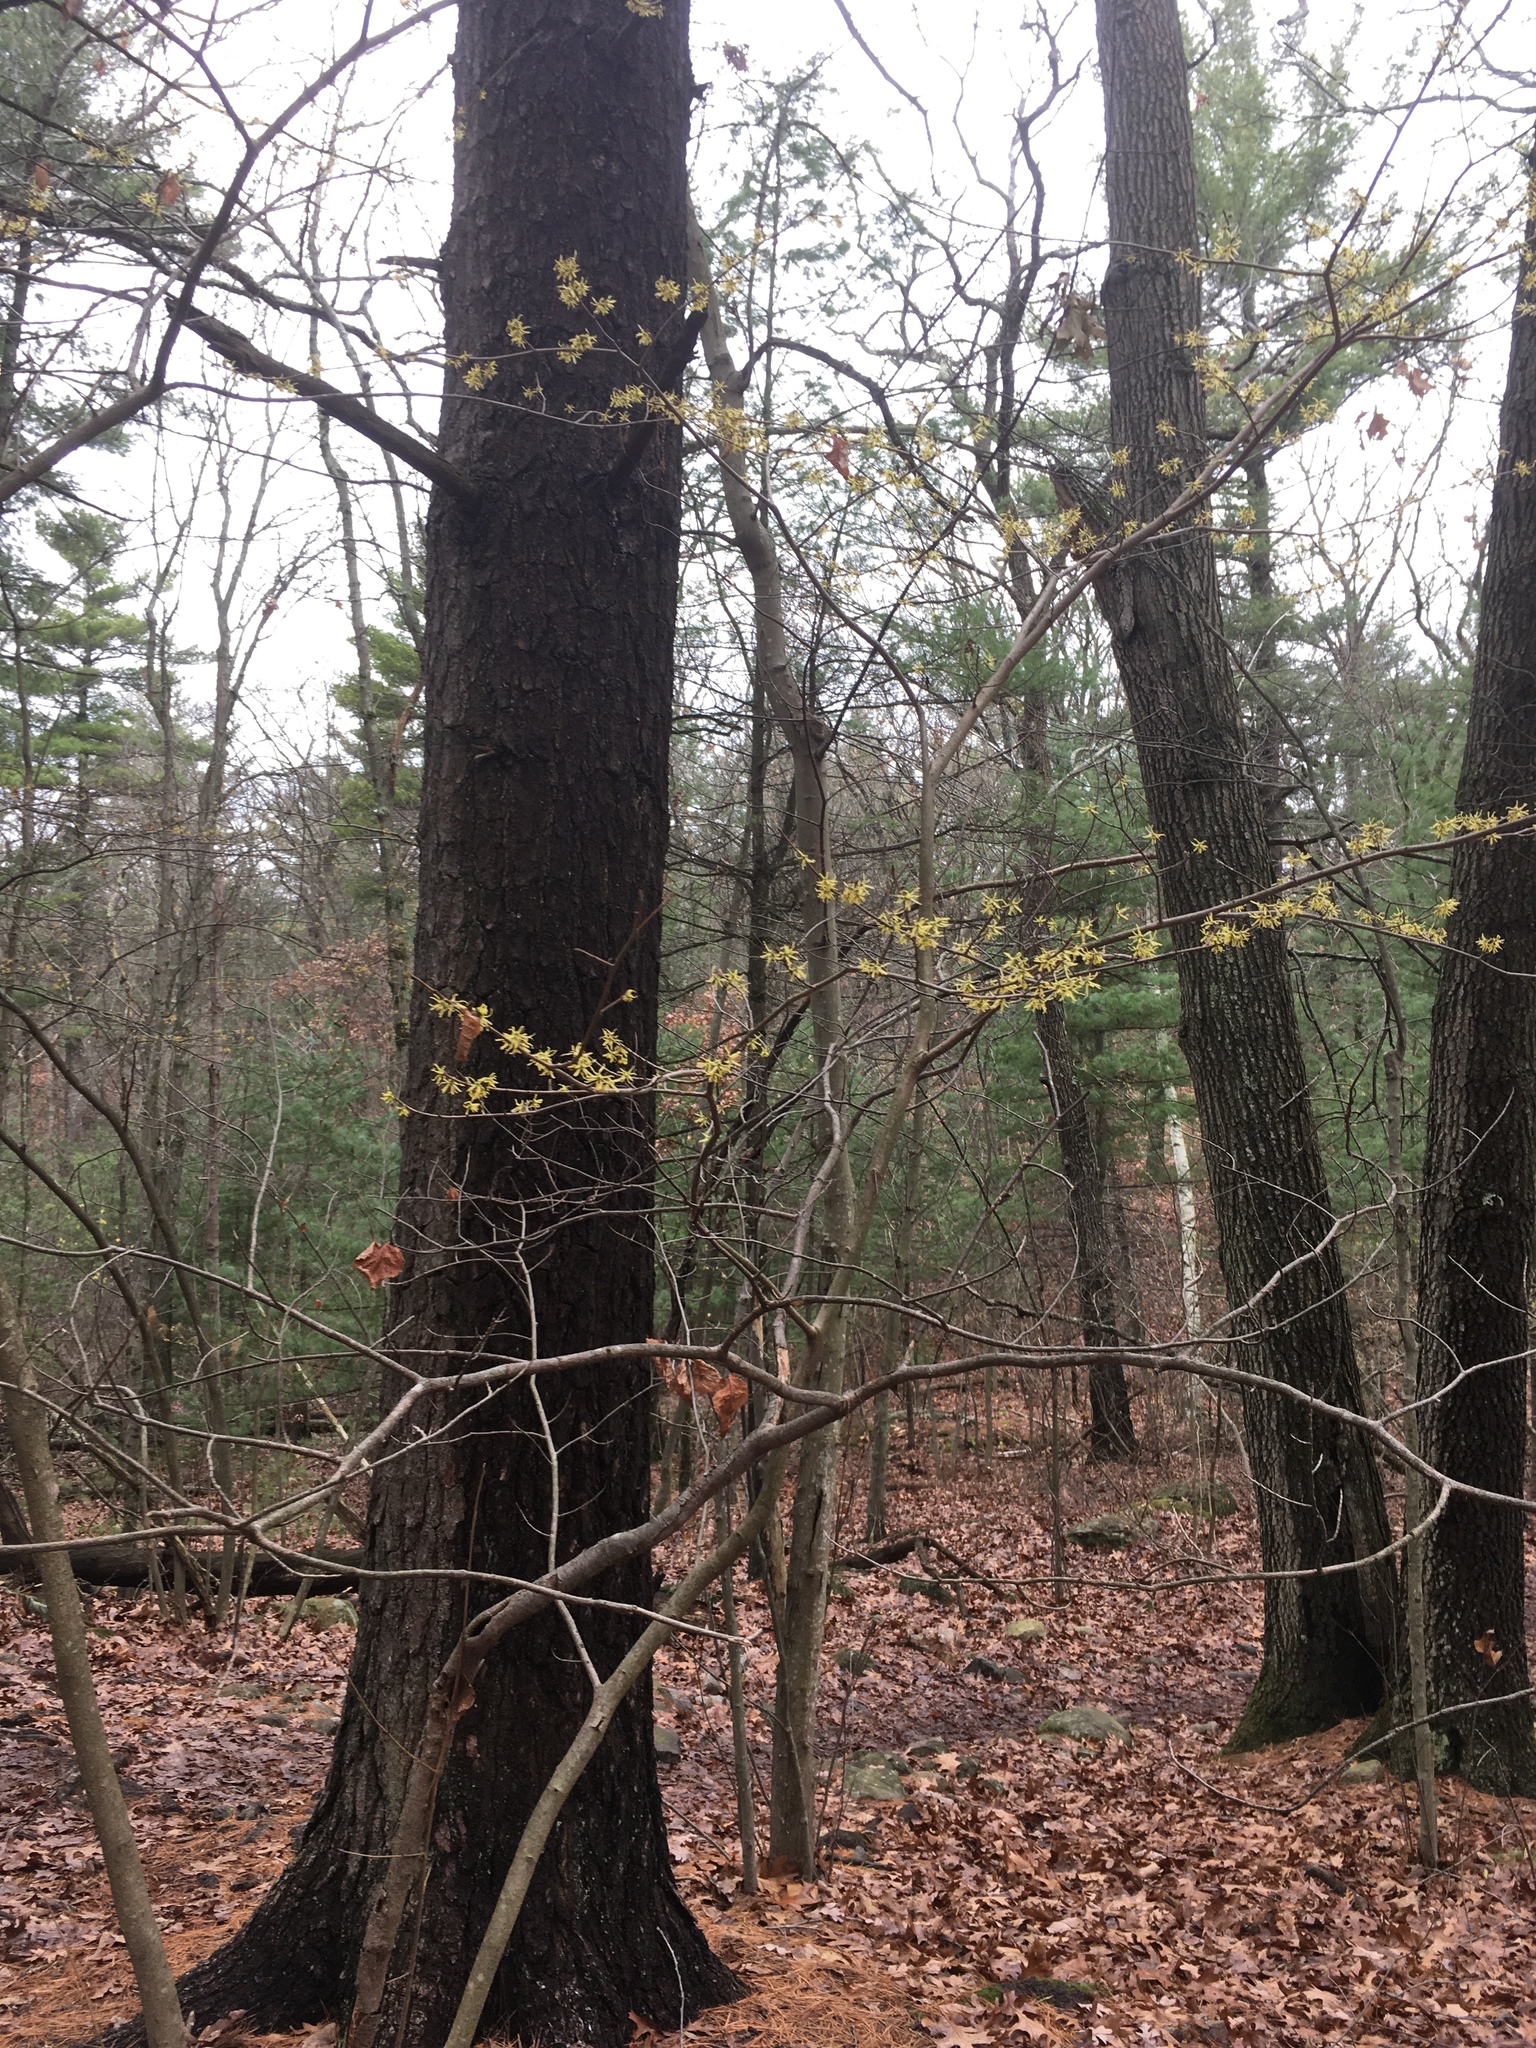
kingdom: Plantae
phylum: Tracheophyta
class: Magnoliopsida
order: Saxifragales
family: Hamamelidaceae
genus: Hamamelis
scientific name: Hamamelis virginiana
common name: Witch-hazel
